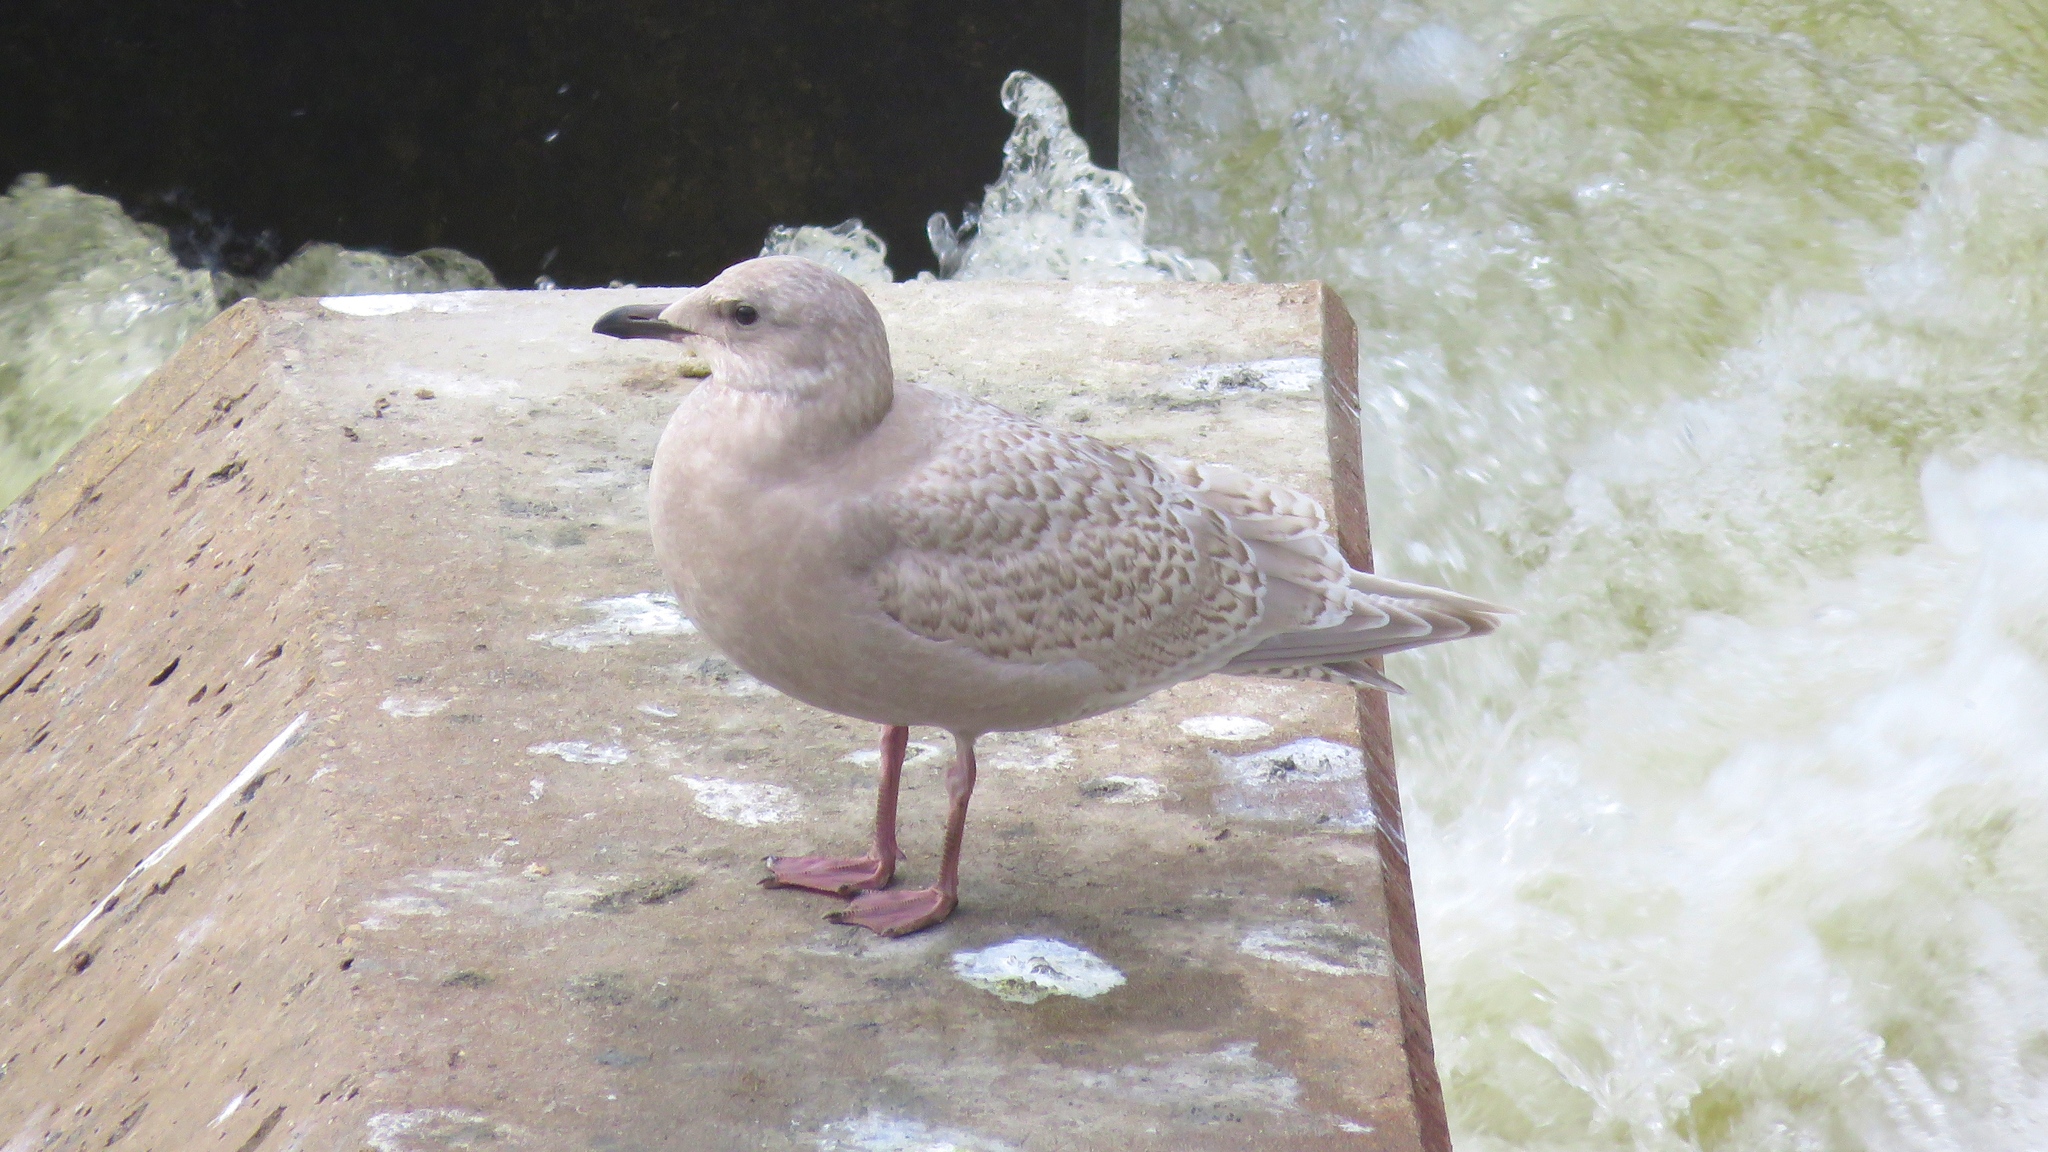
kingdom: Animalia
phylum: Chordata
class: Aves
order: Charadriiformes
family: Laridae
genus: Larus
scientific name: Larus glaucoides
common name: Iceland gull
